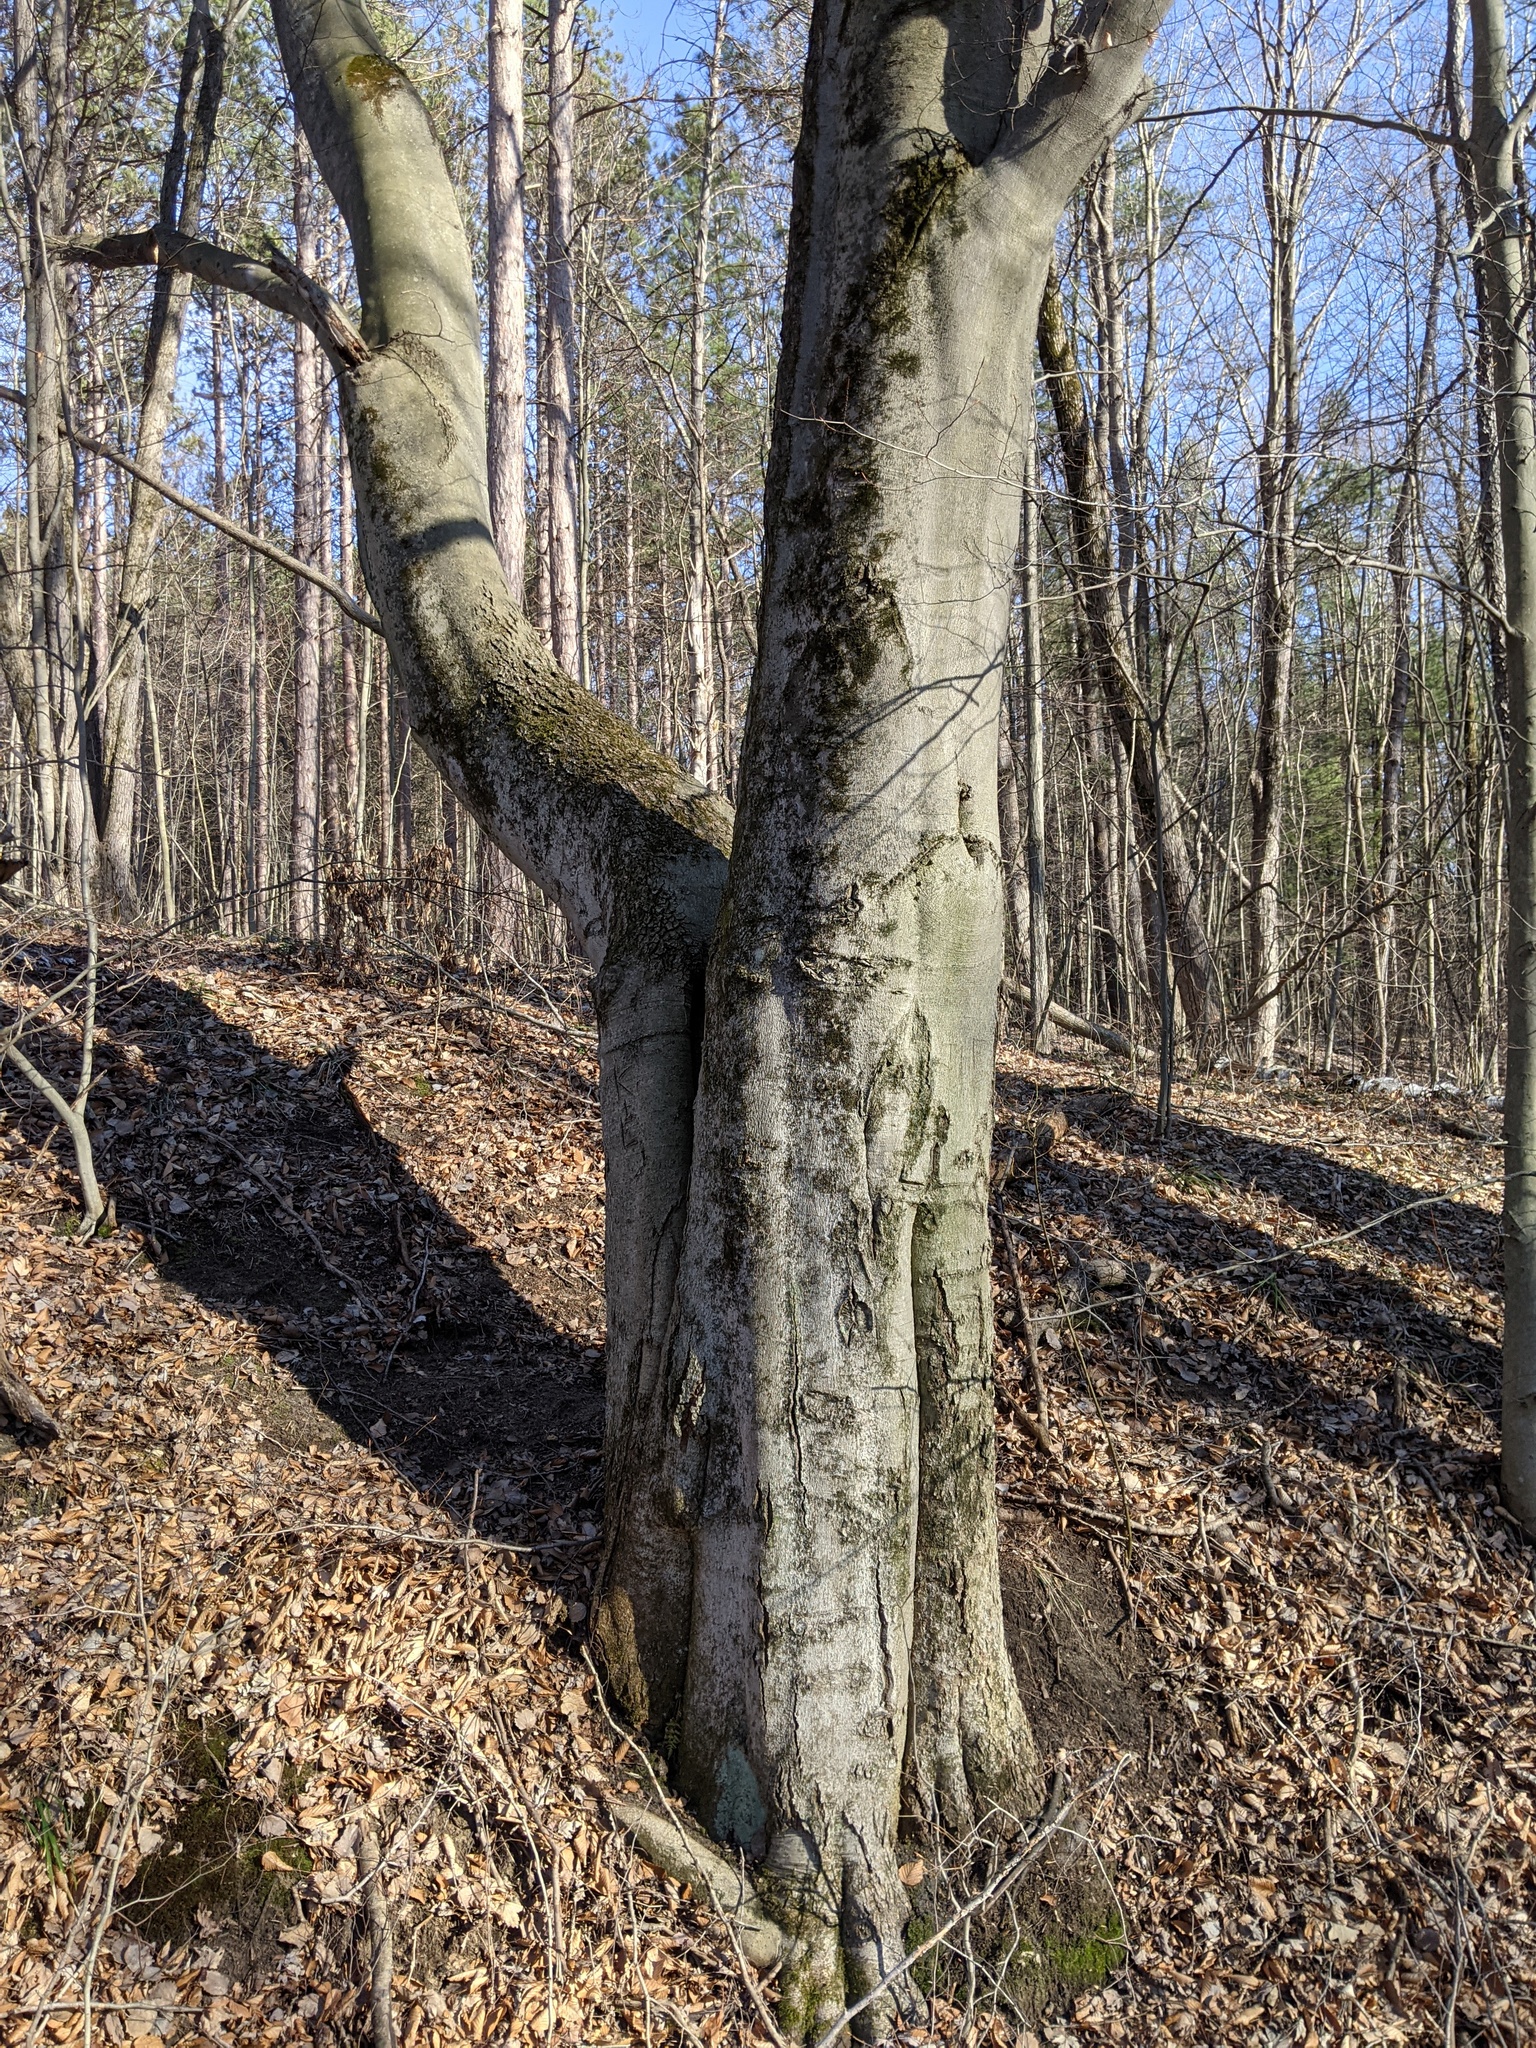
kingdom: Plantae
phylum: Tracheophyta
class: Magnoliopsida
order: Fagales
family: Fagaceae
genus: Fagus
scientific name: Fagus grandifolia
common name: American beech
